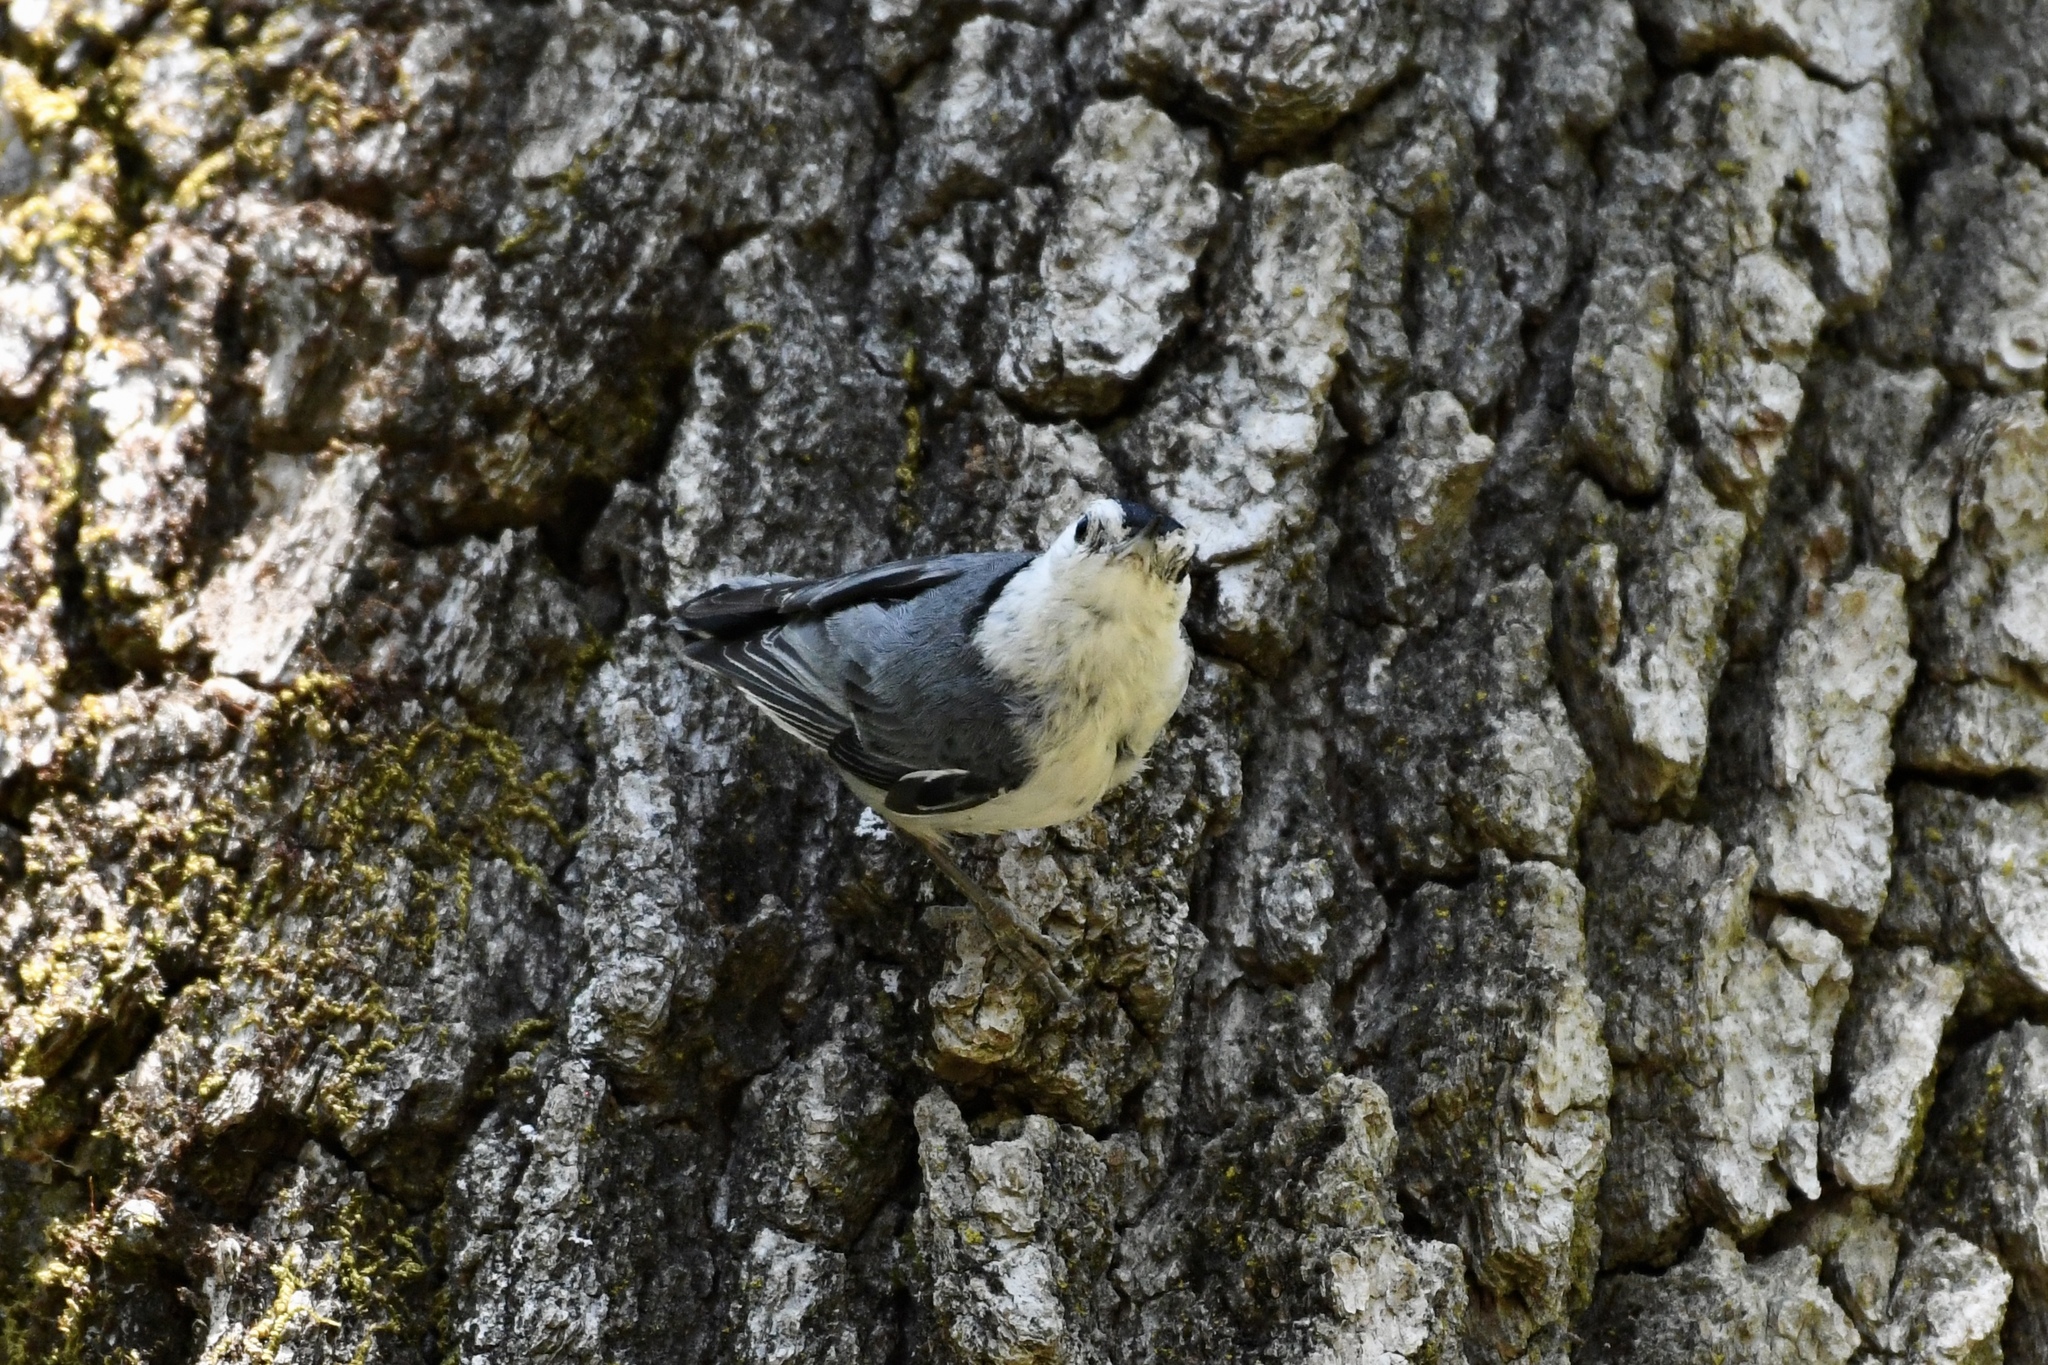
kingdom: Animalia
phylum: Chordata
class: Aves
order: Passeriformes
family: Sittidae
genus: Sitta
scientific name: Sitta carolinensis
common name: White-breasted nuthatch
